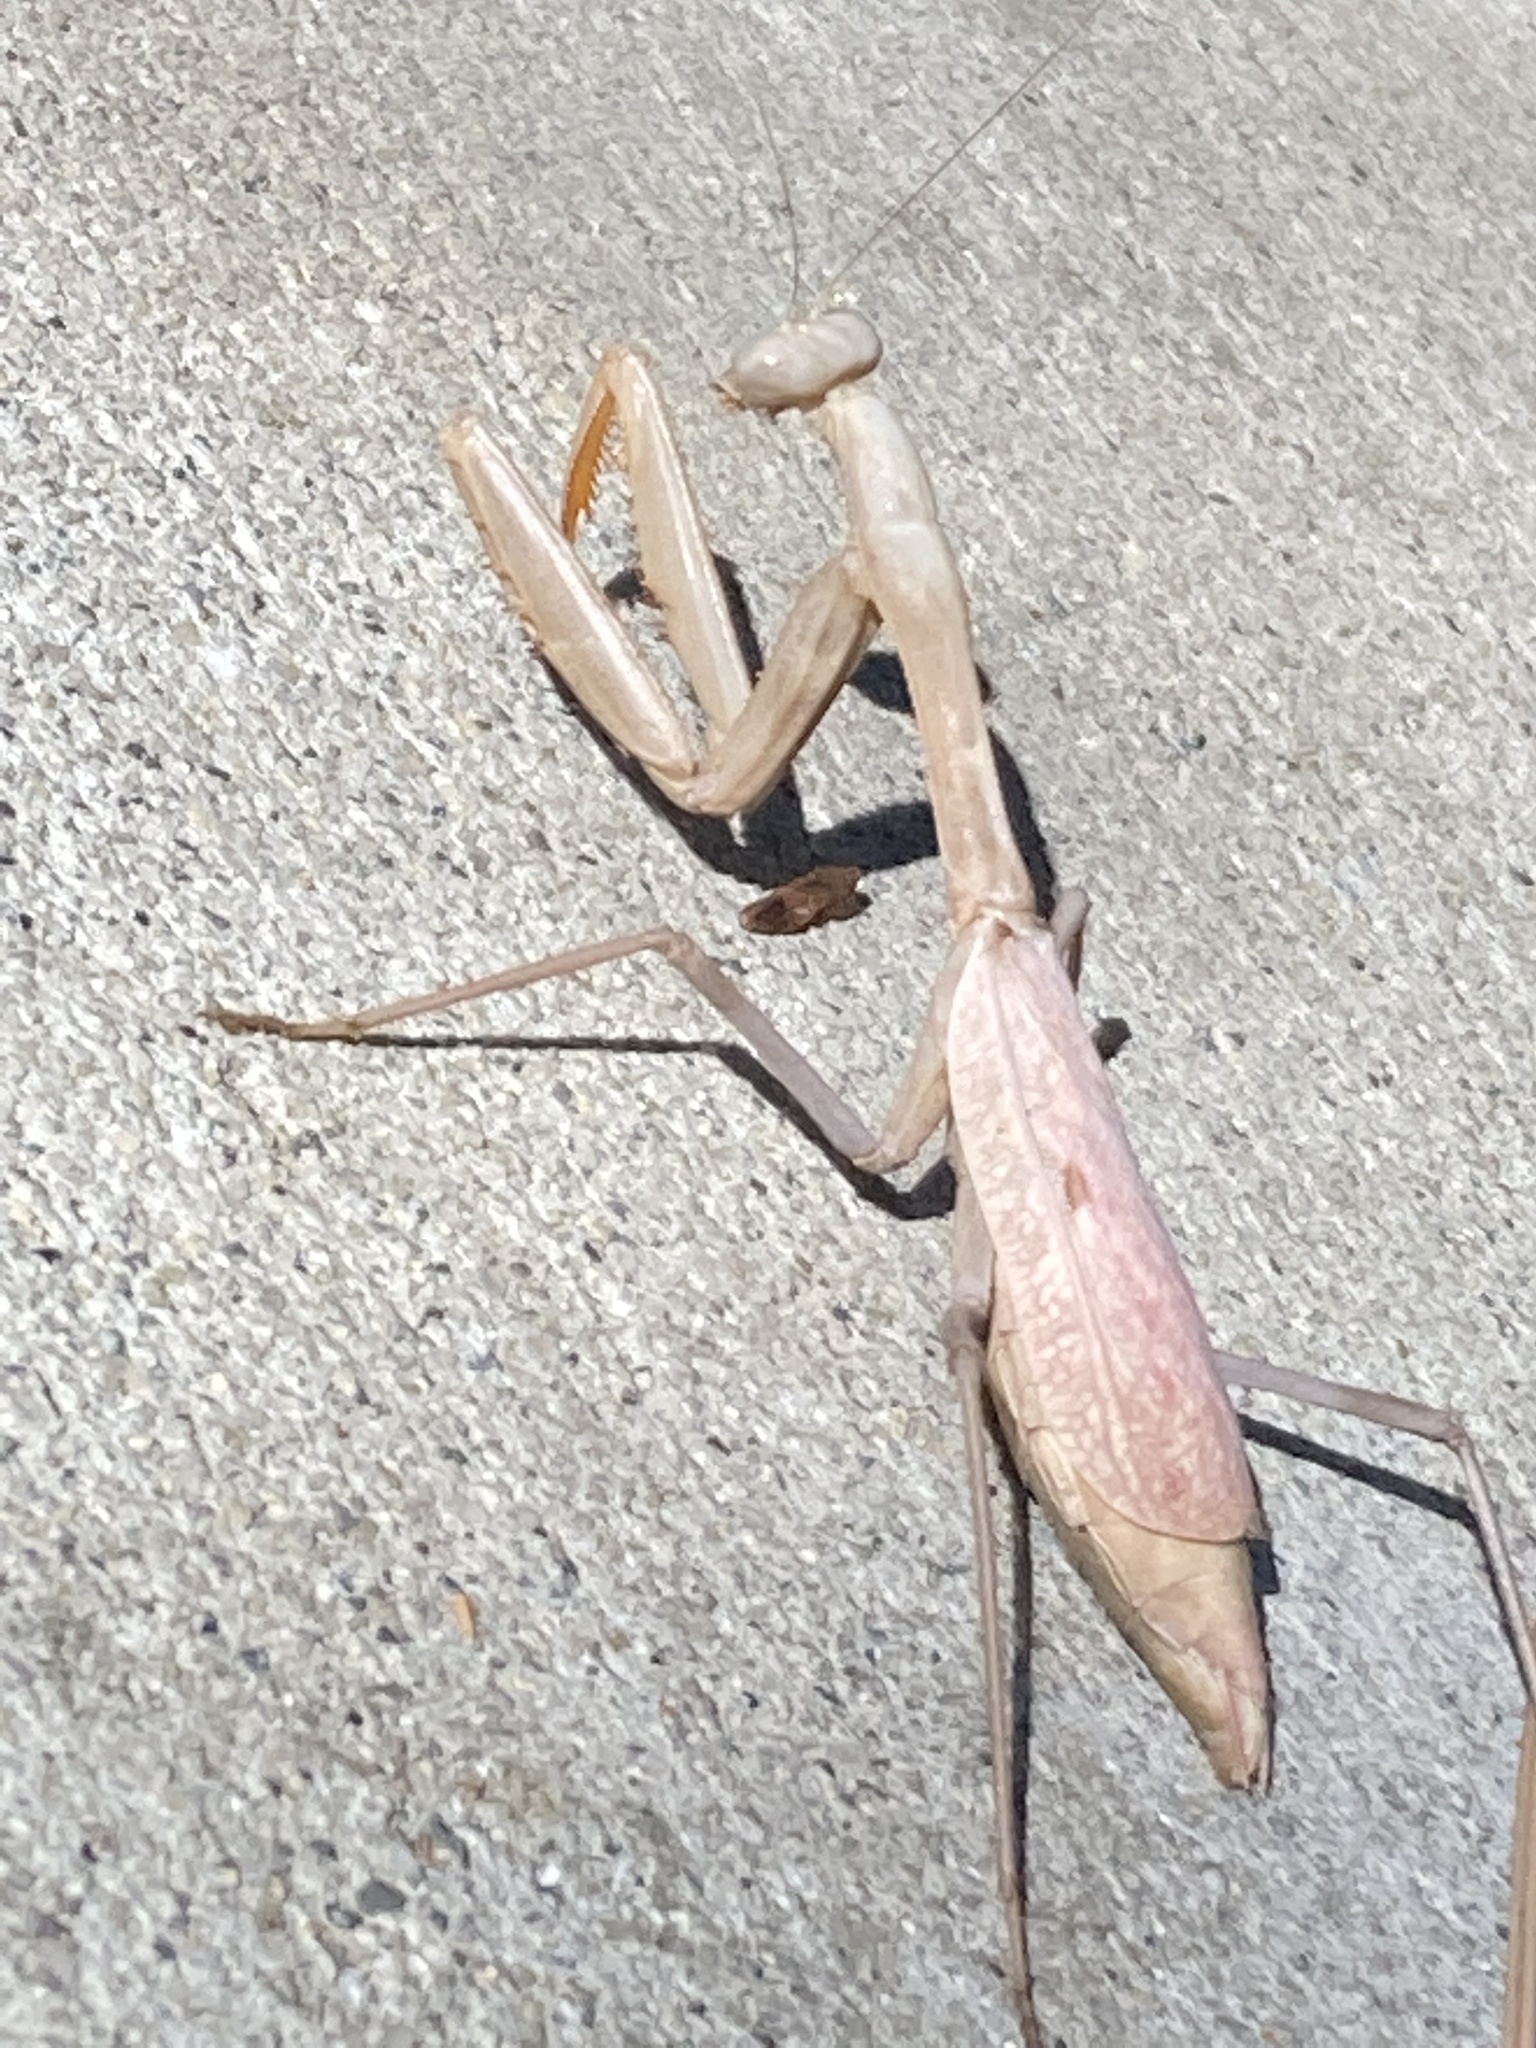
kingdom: Animalia
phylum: Arthropoda
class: Insecta
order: Mantodea
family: Mantidae
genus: Stagmomantis
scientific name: Stagmomantis limbata
